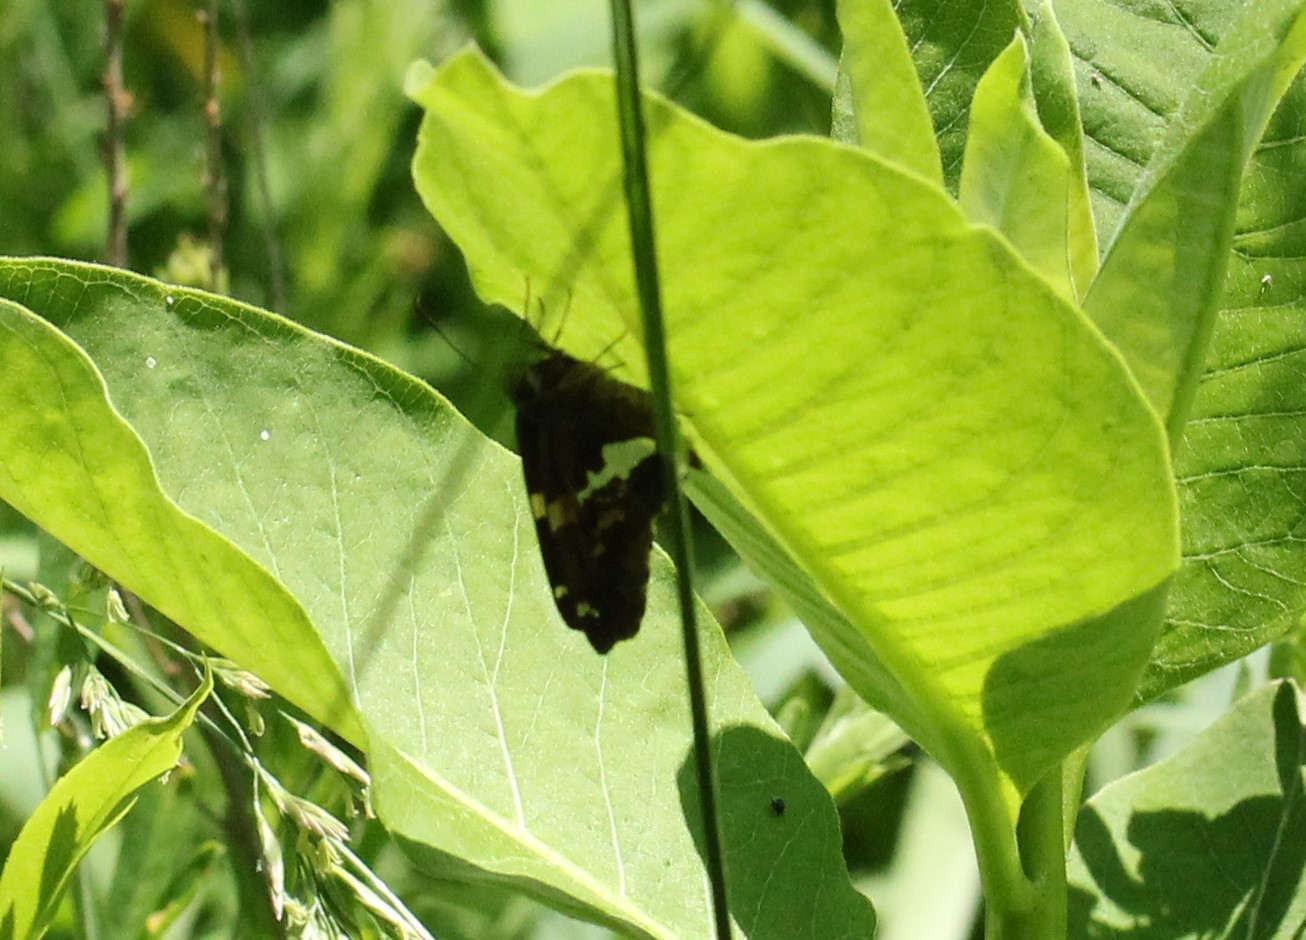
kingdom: Animalia
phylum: Arthropoda
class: Insecta
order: Lepidoptera
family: Hesperiidae
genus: Epargyreus
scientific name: Epargyreus clarus
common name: Silver-spotted skipper
